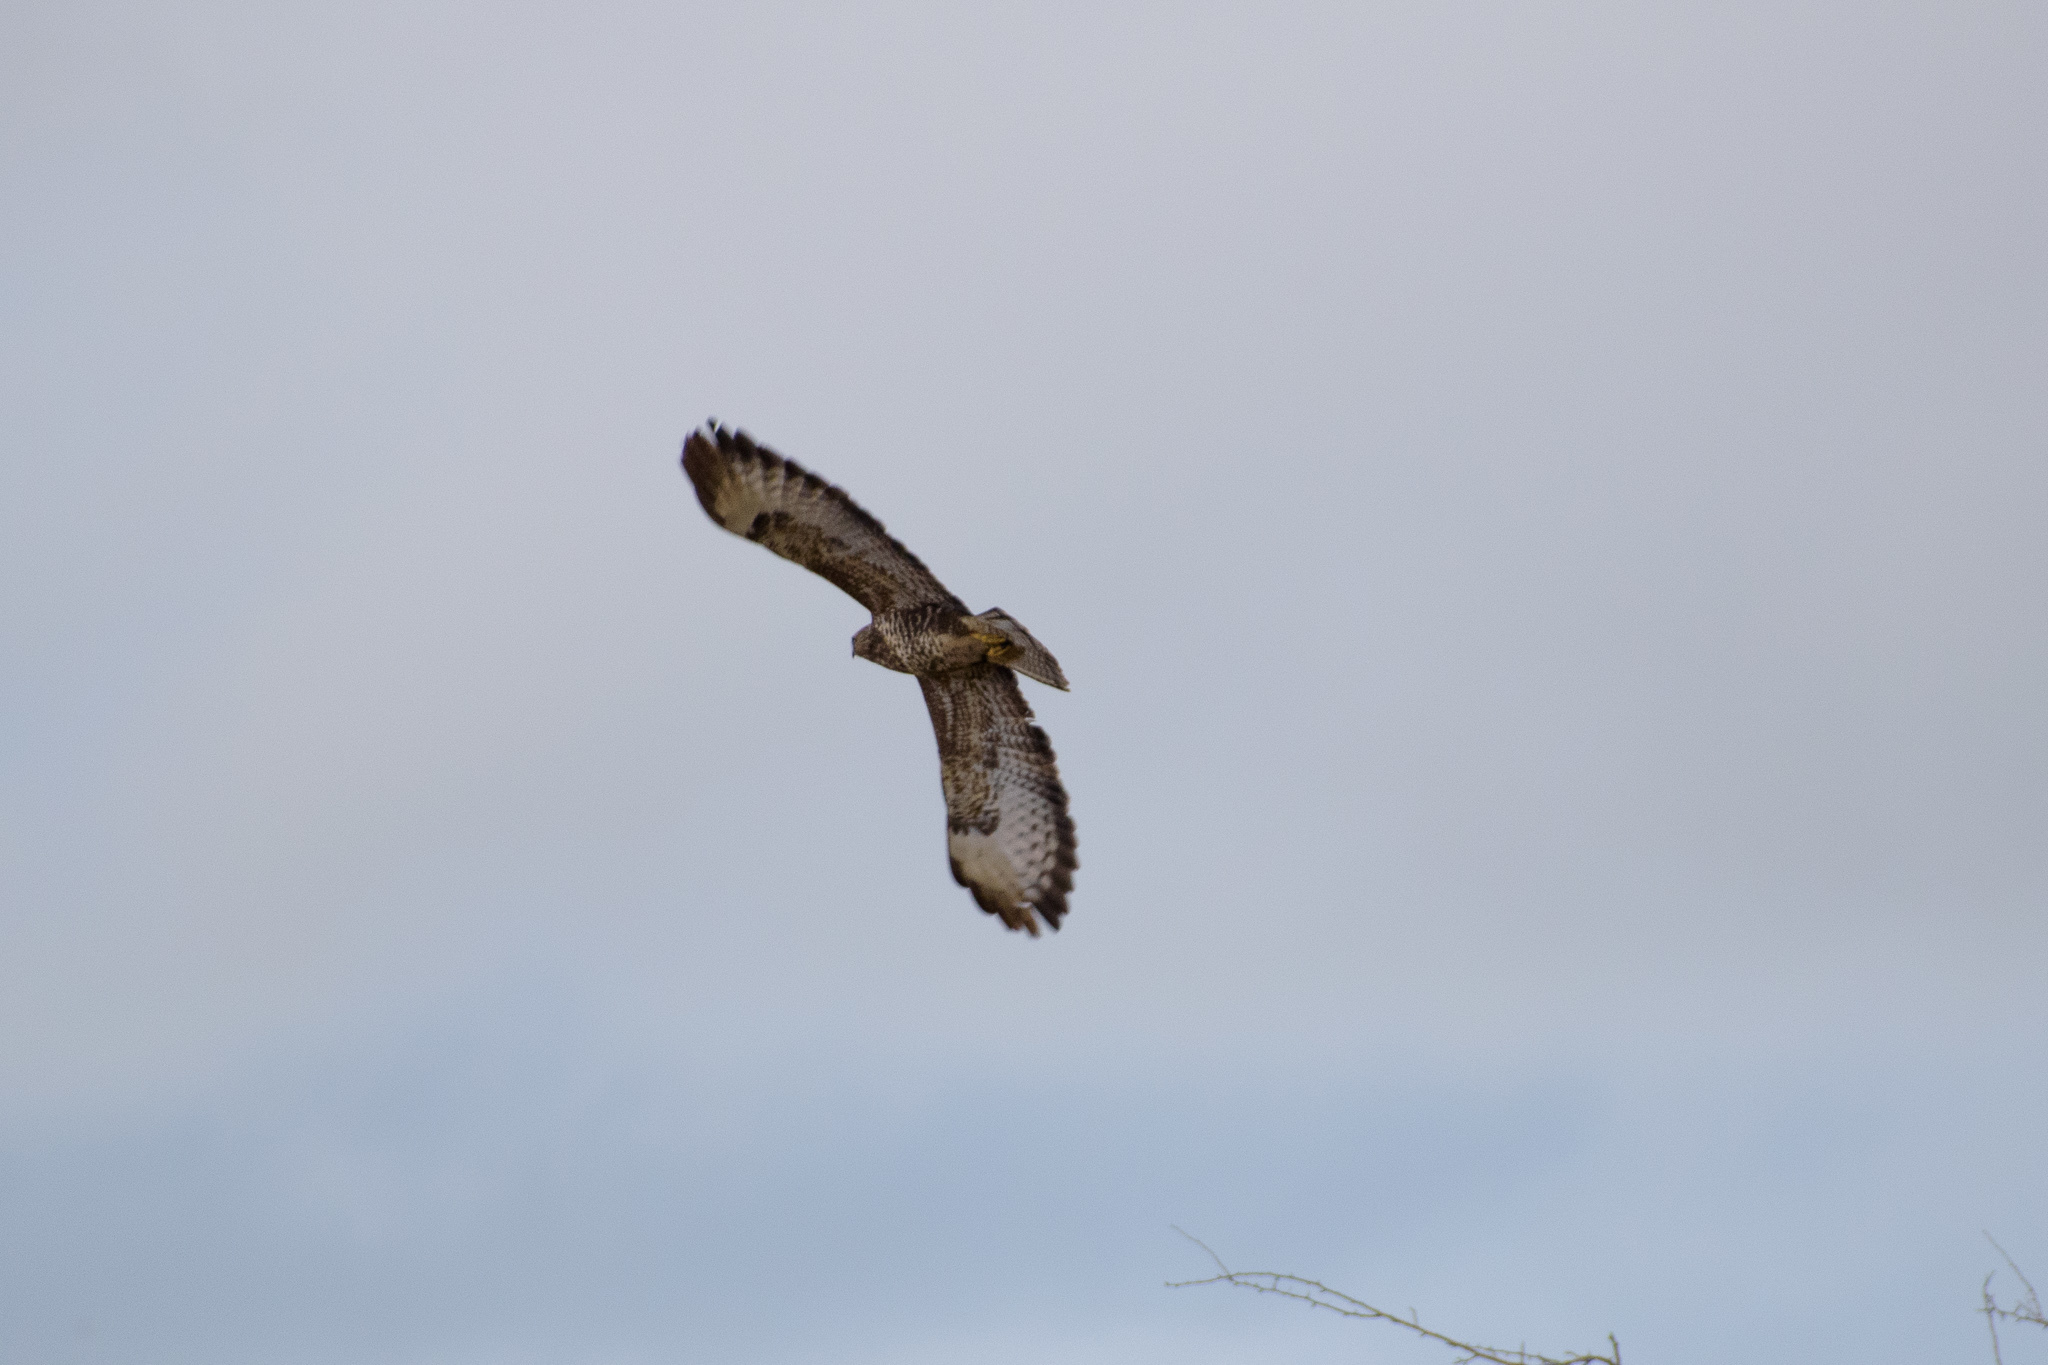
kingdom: Animalia
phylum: Chordata
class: Aves
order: Accipitriformes
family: Accipitridae
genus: Buteo
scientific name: Buteo buteo
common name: Common buzzard
